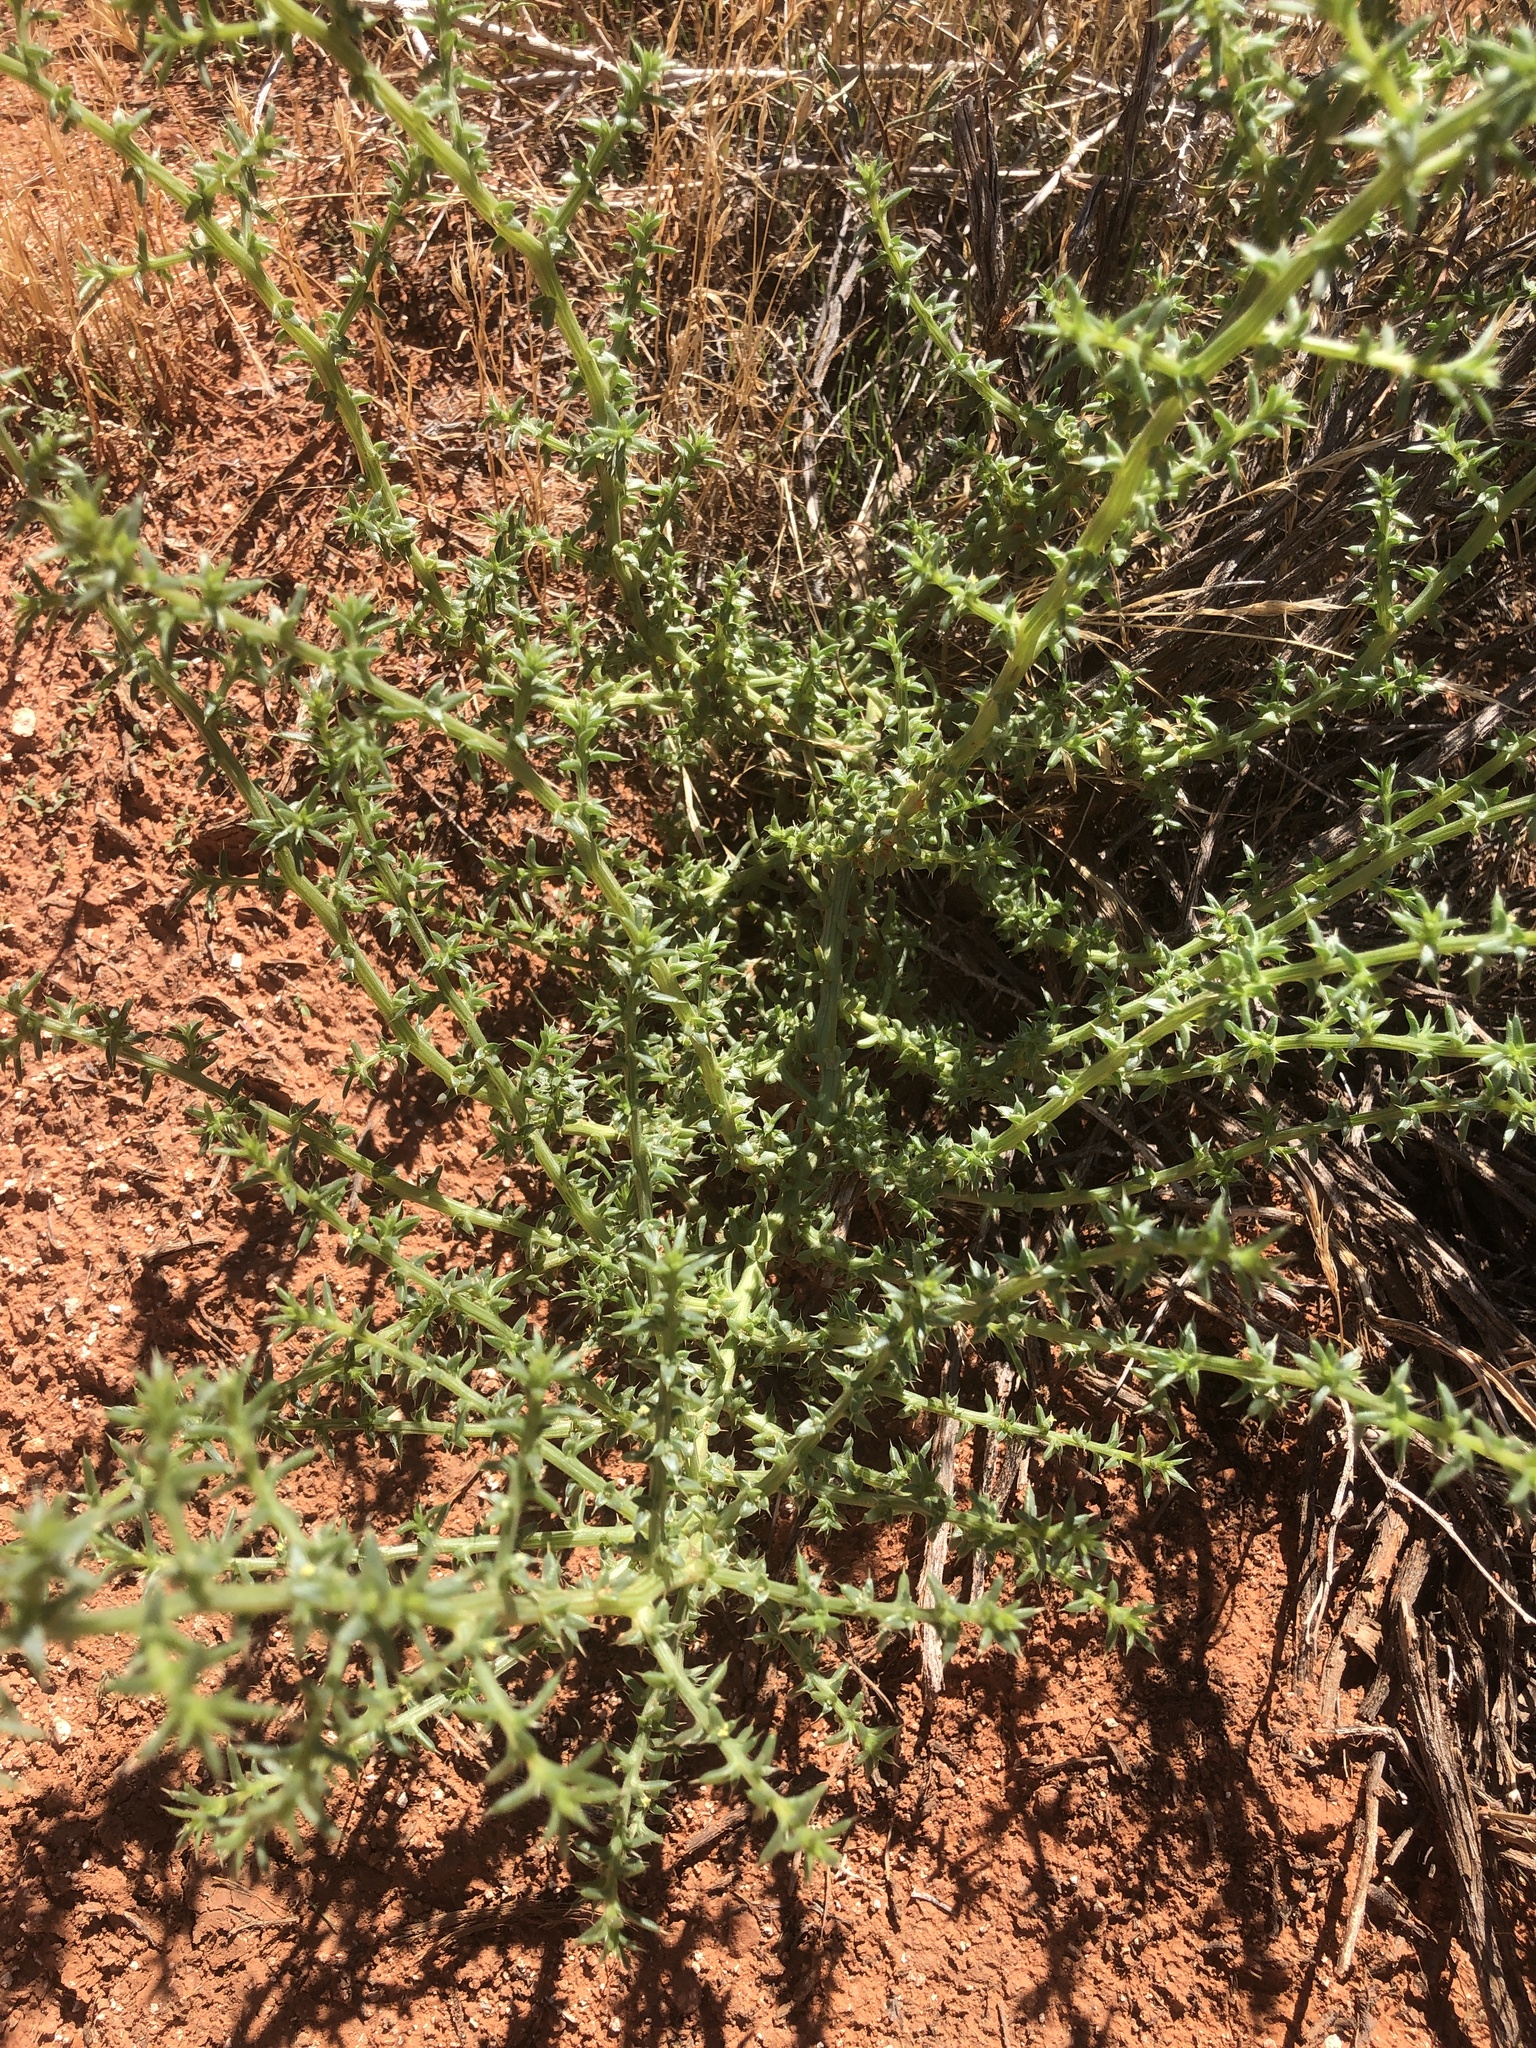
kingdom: Plantae
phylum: Tracheophyta
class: Magnoliopsida
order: Caryophyllales
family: Amaranthaceae
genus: Salsola
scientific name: Salsola tragus
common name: Prickly russian thistle
